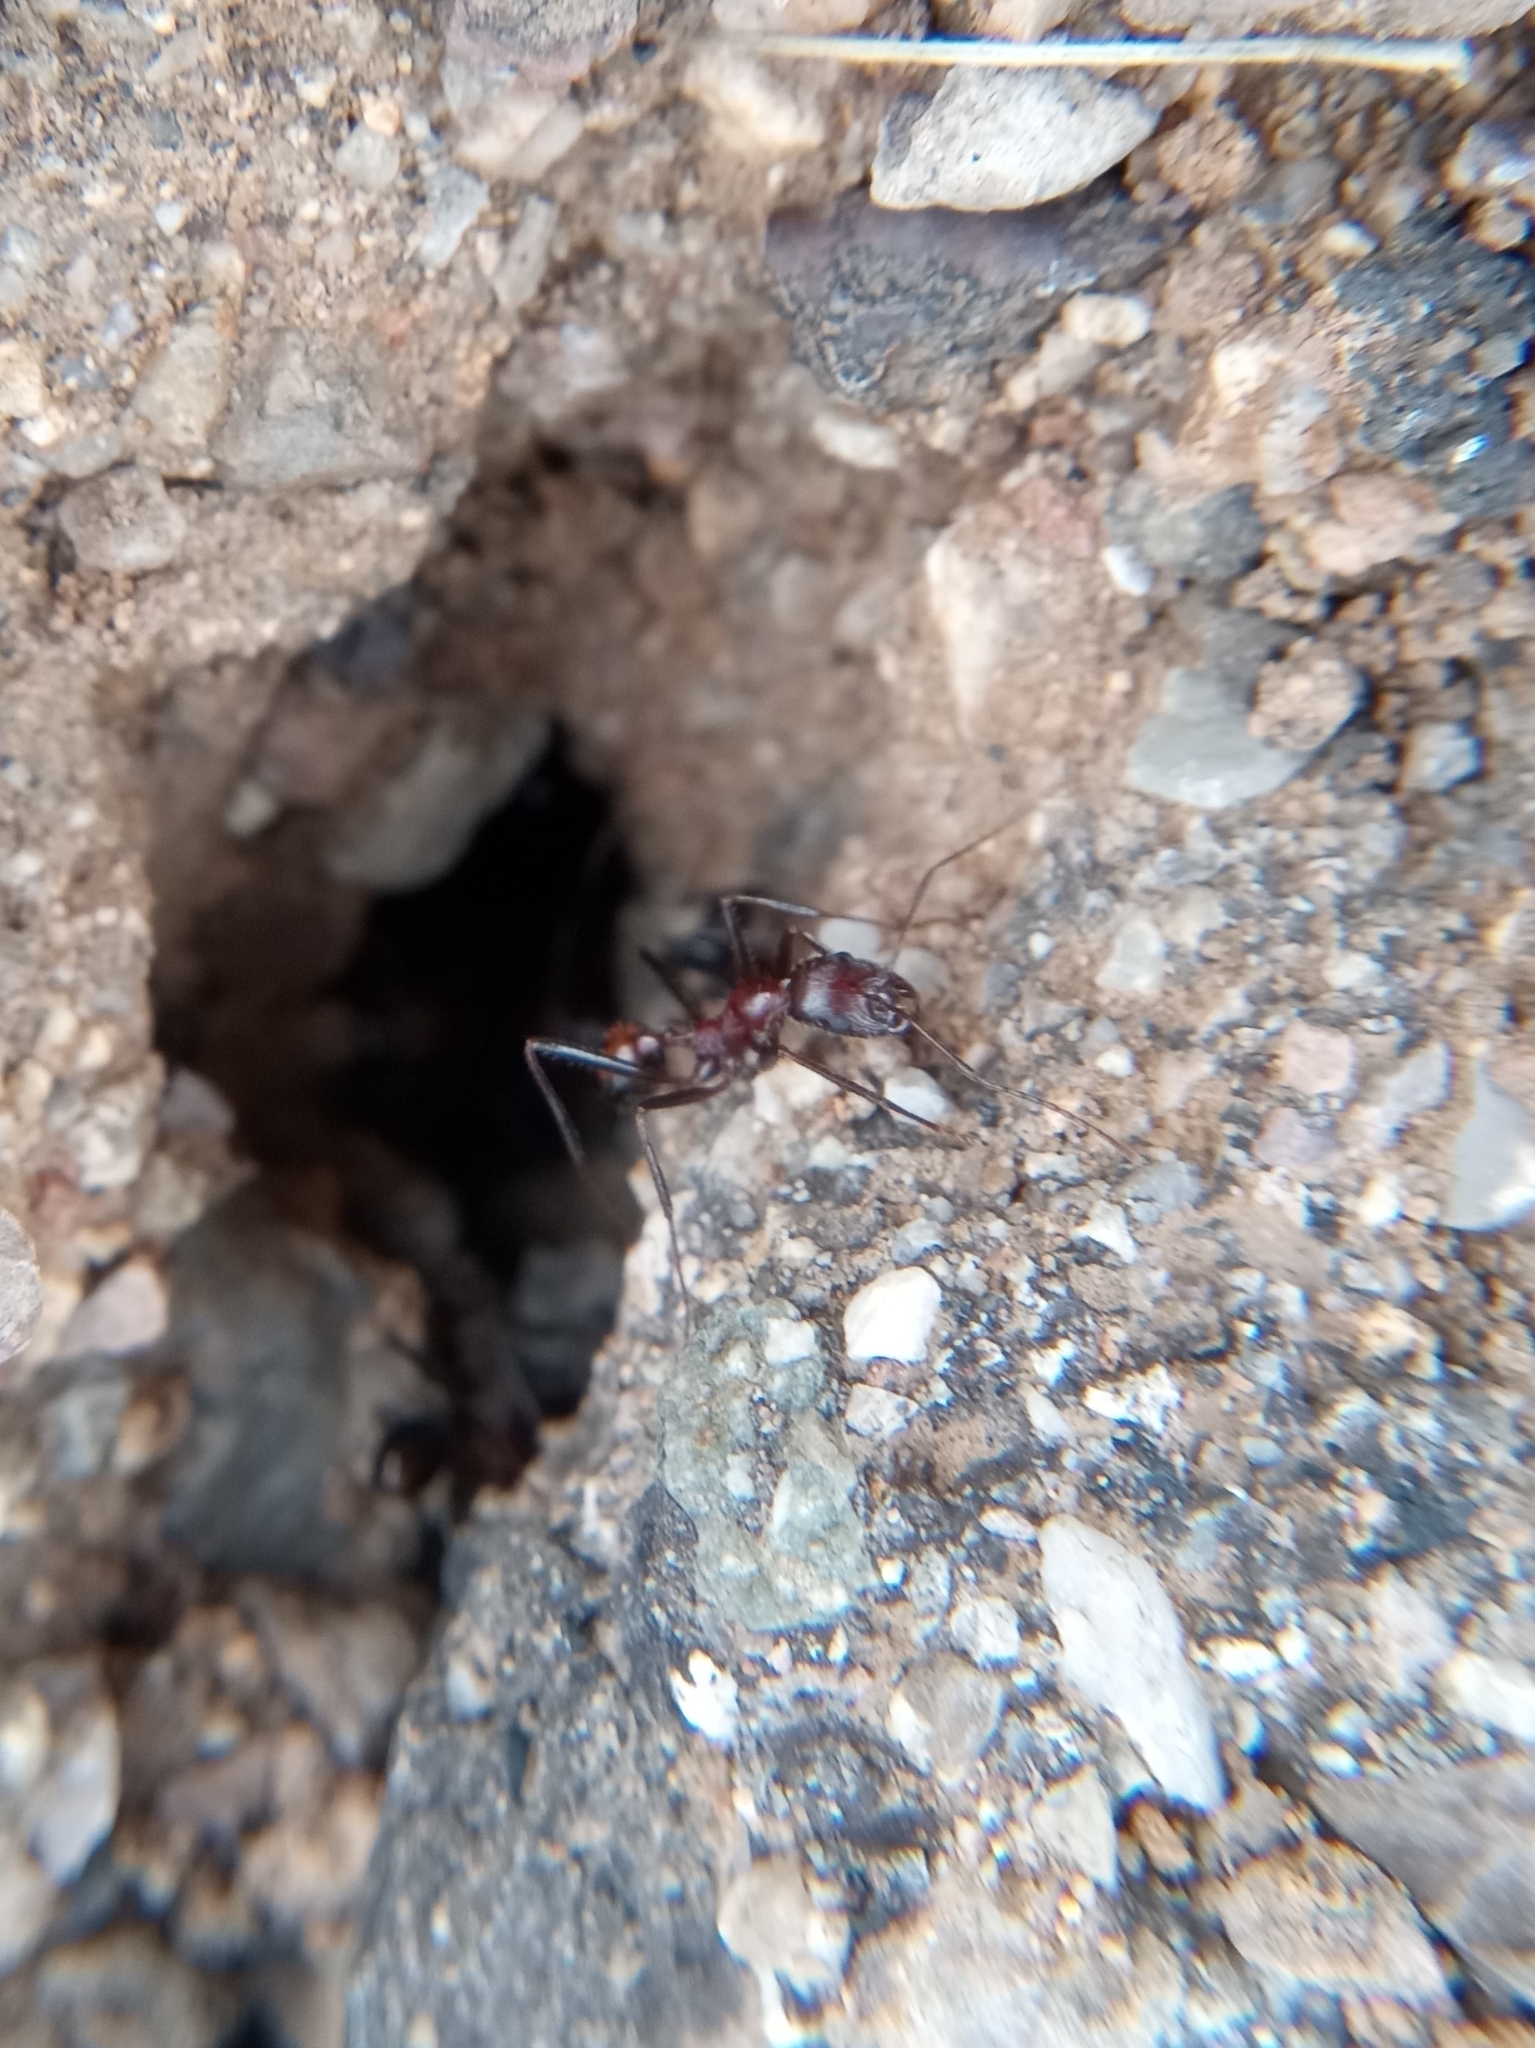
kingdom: Animalia
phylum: Arthropoda
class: Insecta
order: Hymenoptera
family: Formicidae
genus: Novomessor
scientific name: Novomessor cockerelli
